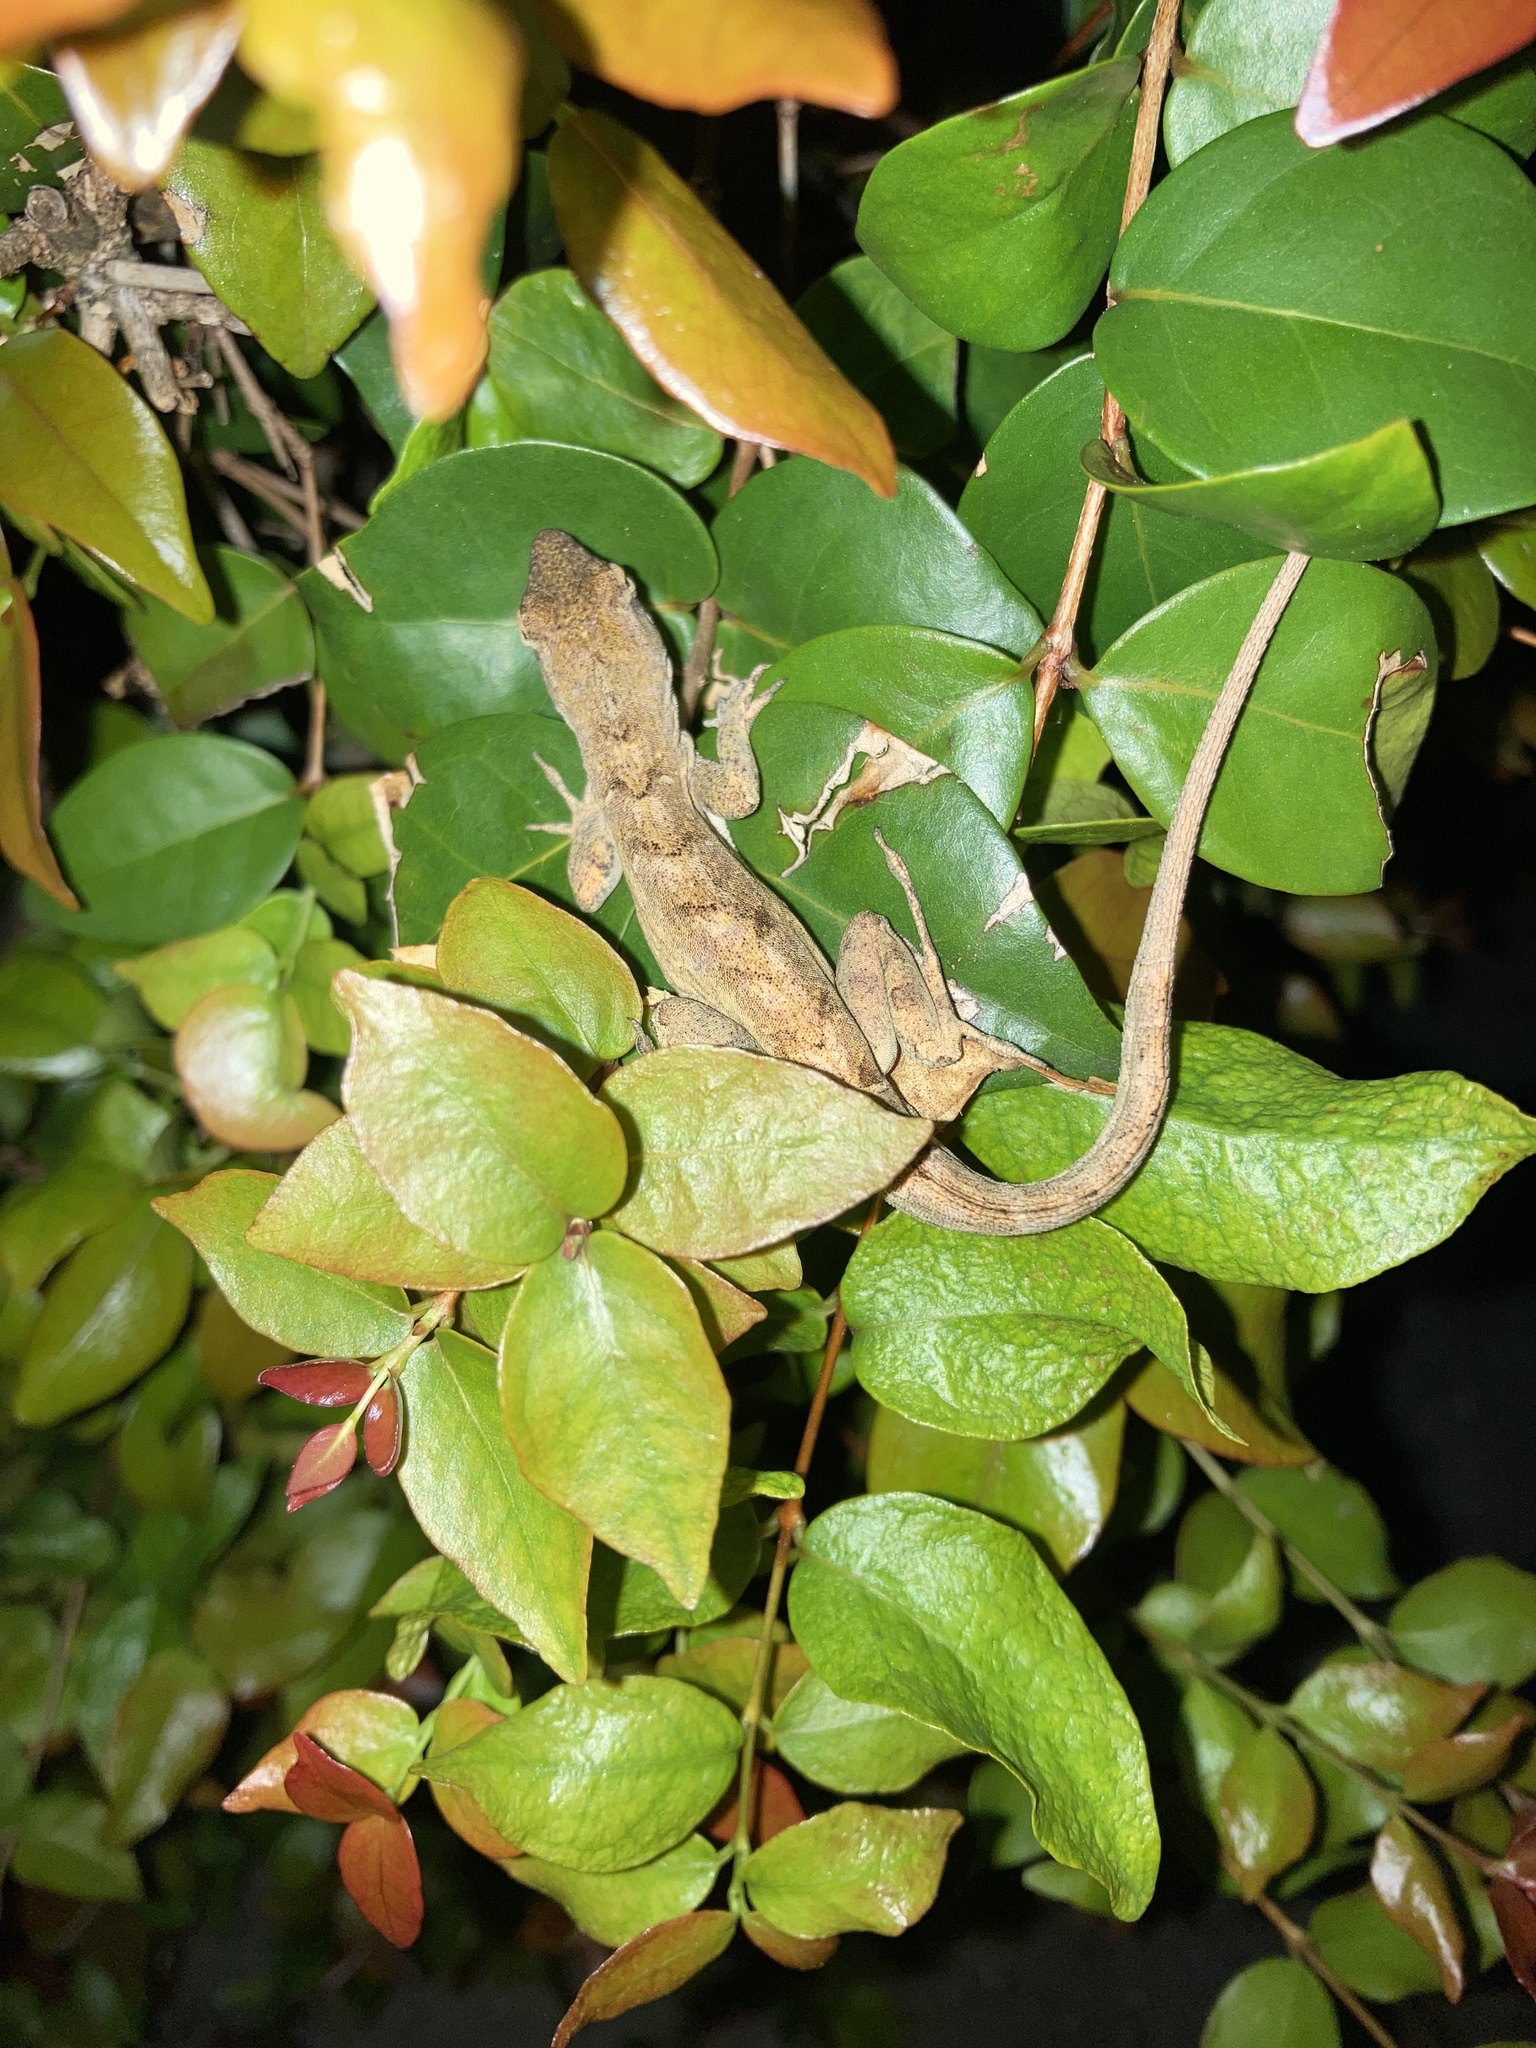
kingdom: Animalia
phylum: Chordata
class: Squamata
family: Dactyloidae
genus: Anolis
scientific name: Anolis sagrei
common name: Brown anole
